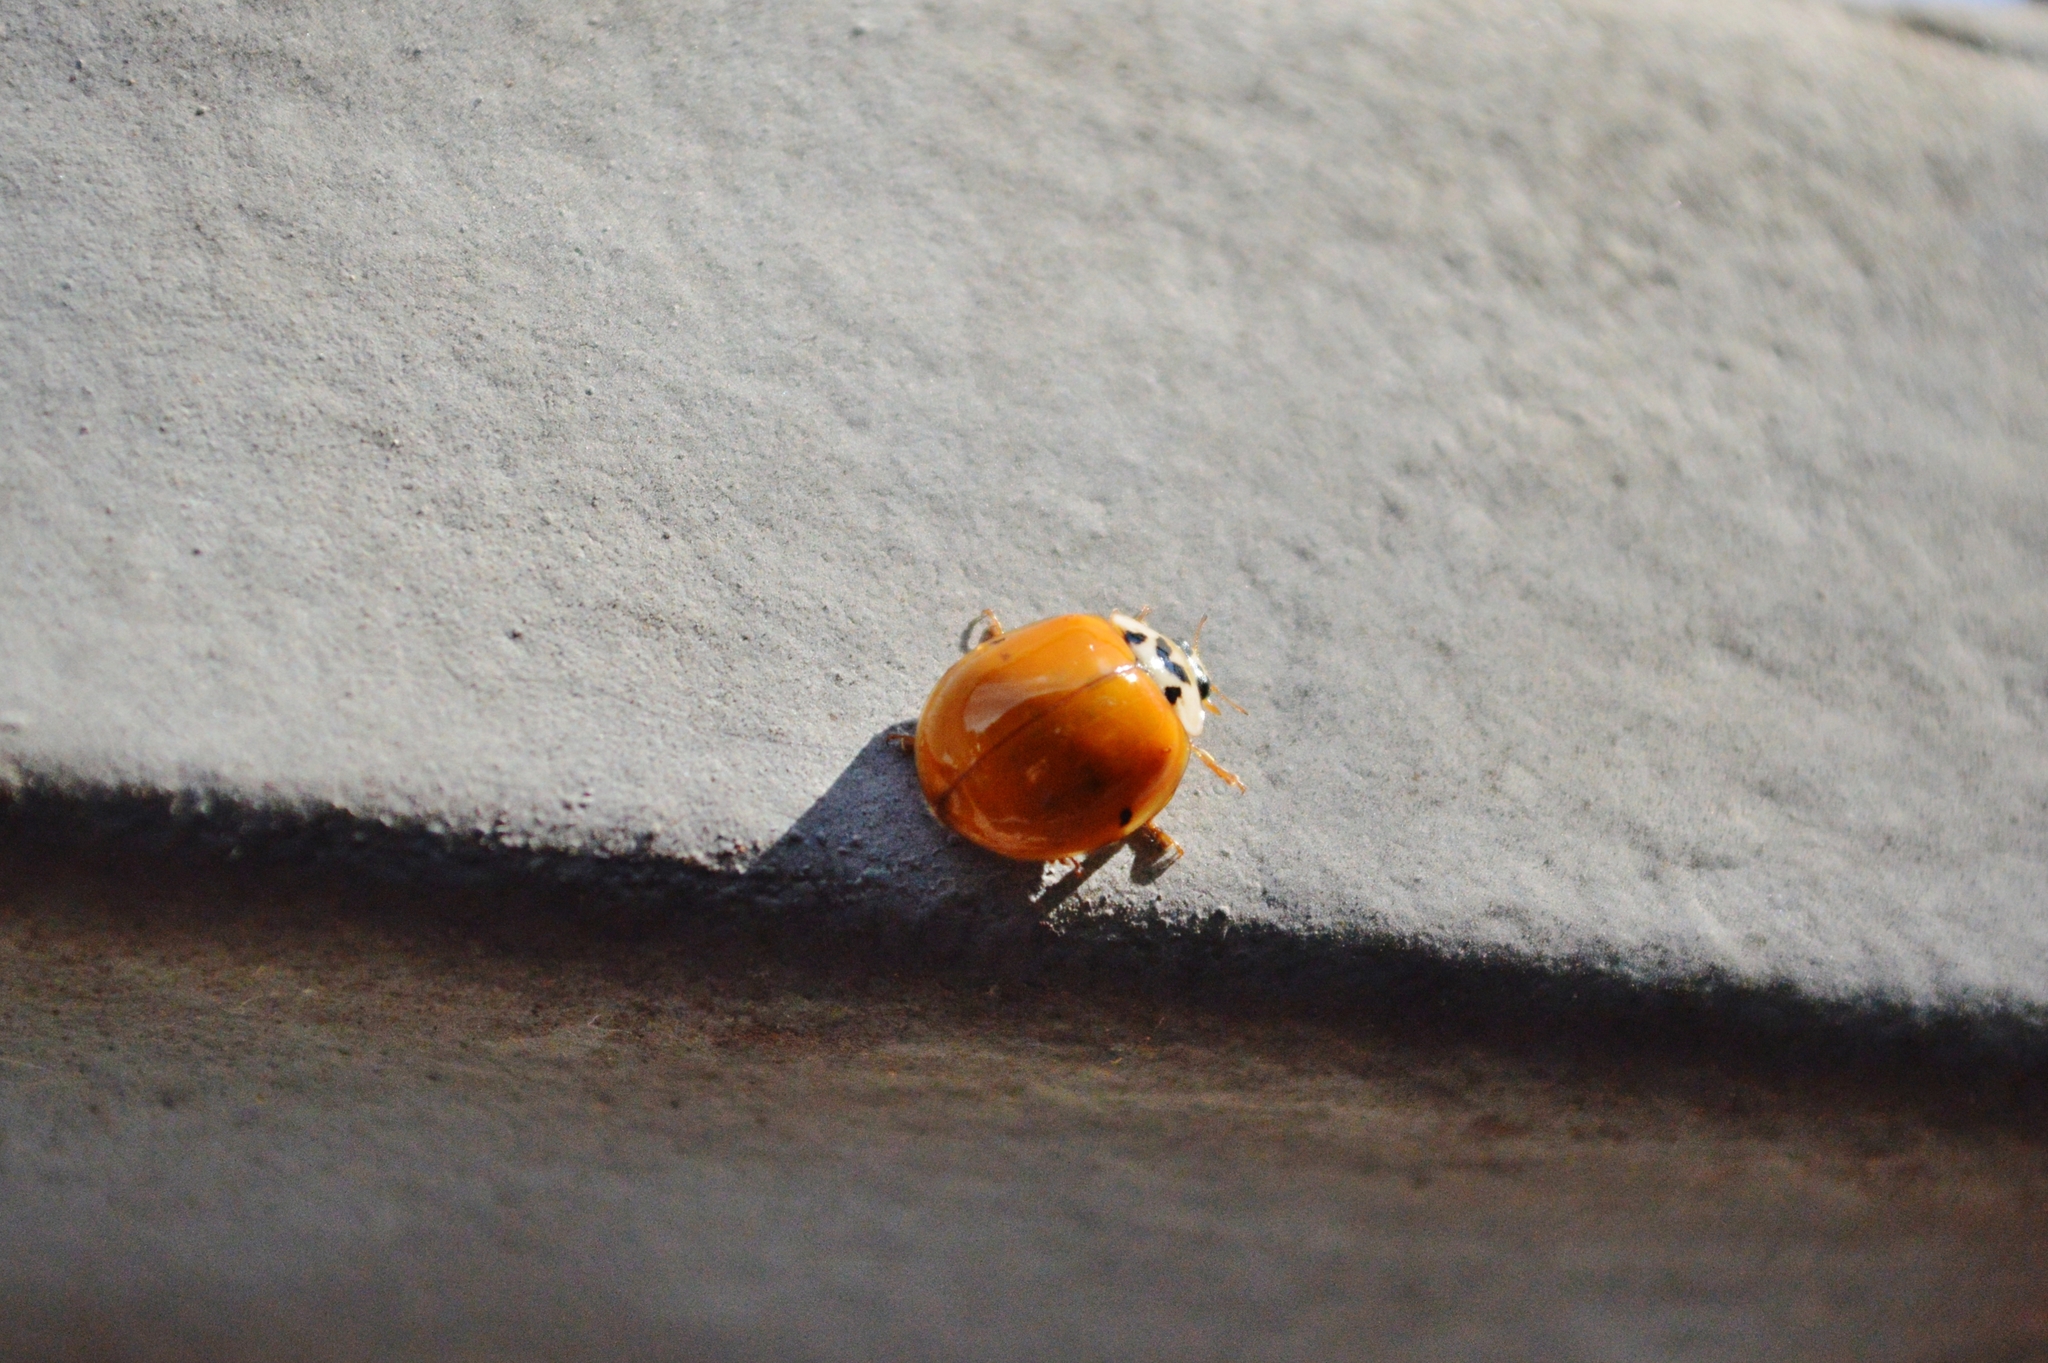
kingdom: Animalia
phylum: Arthropoda
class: Insecta
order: Coleoptera
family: Coccinellidae
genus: Harmonia
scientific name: Harmonia axyridis
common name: Harlequin ladybird
